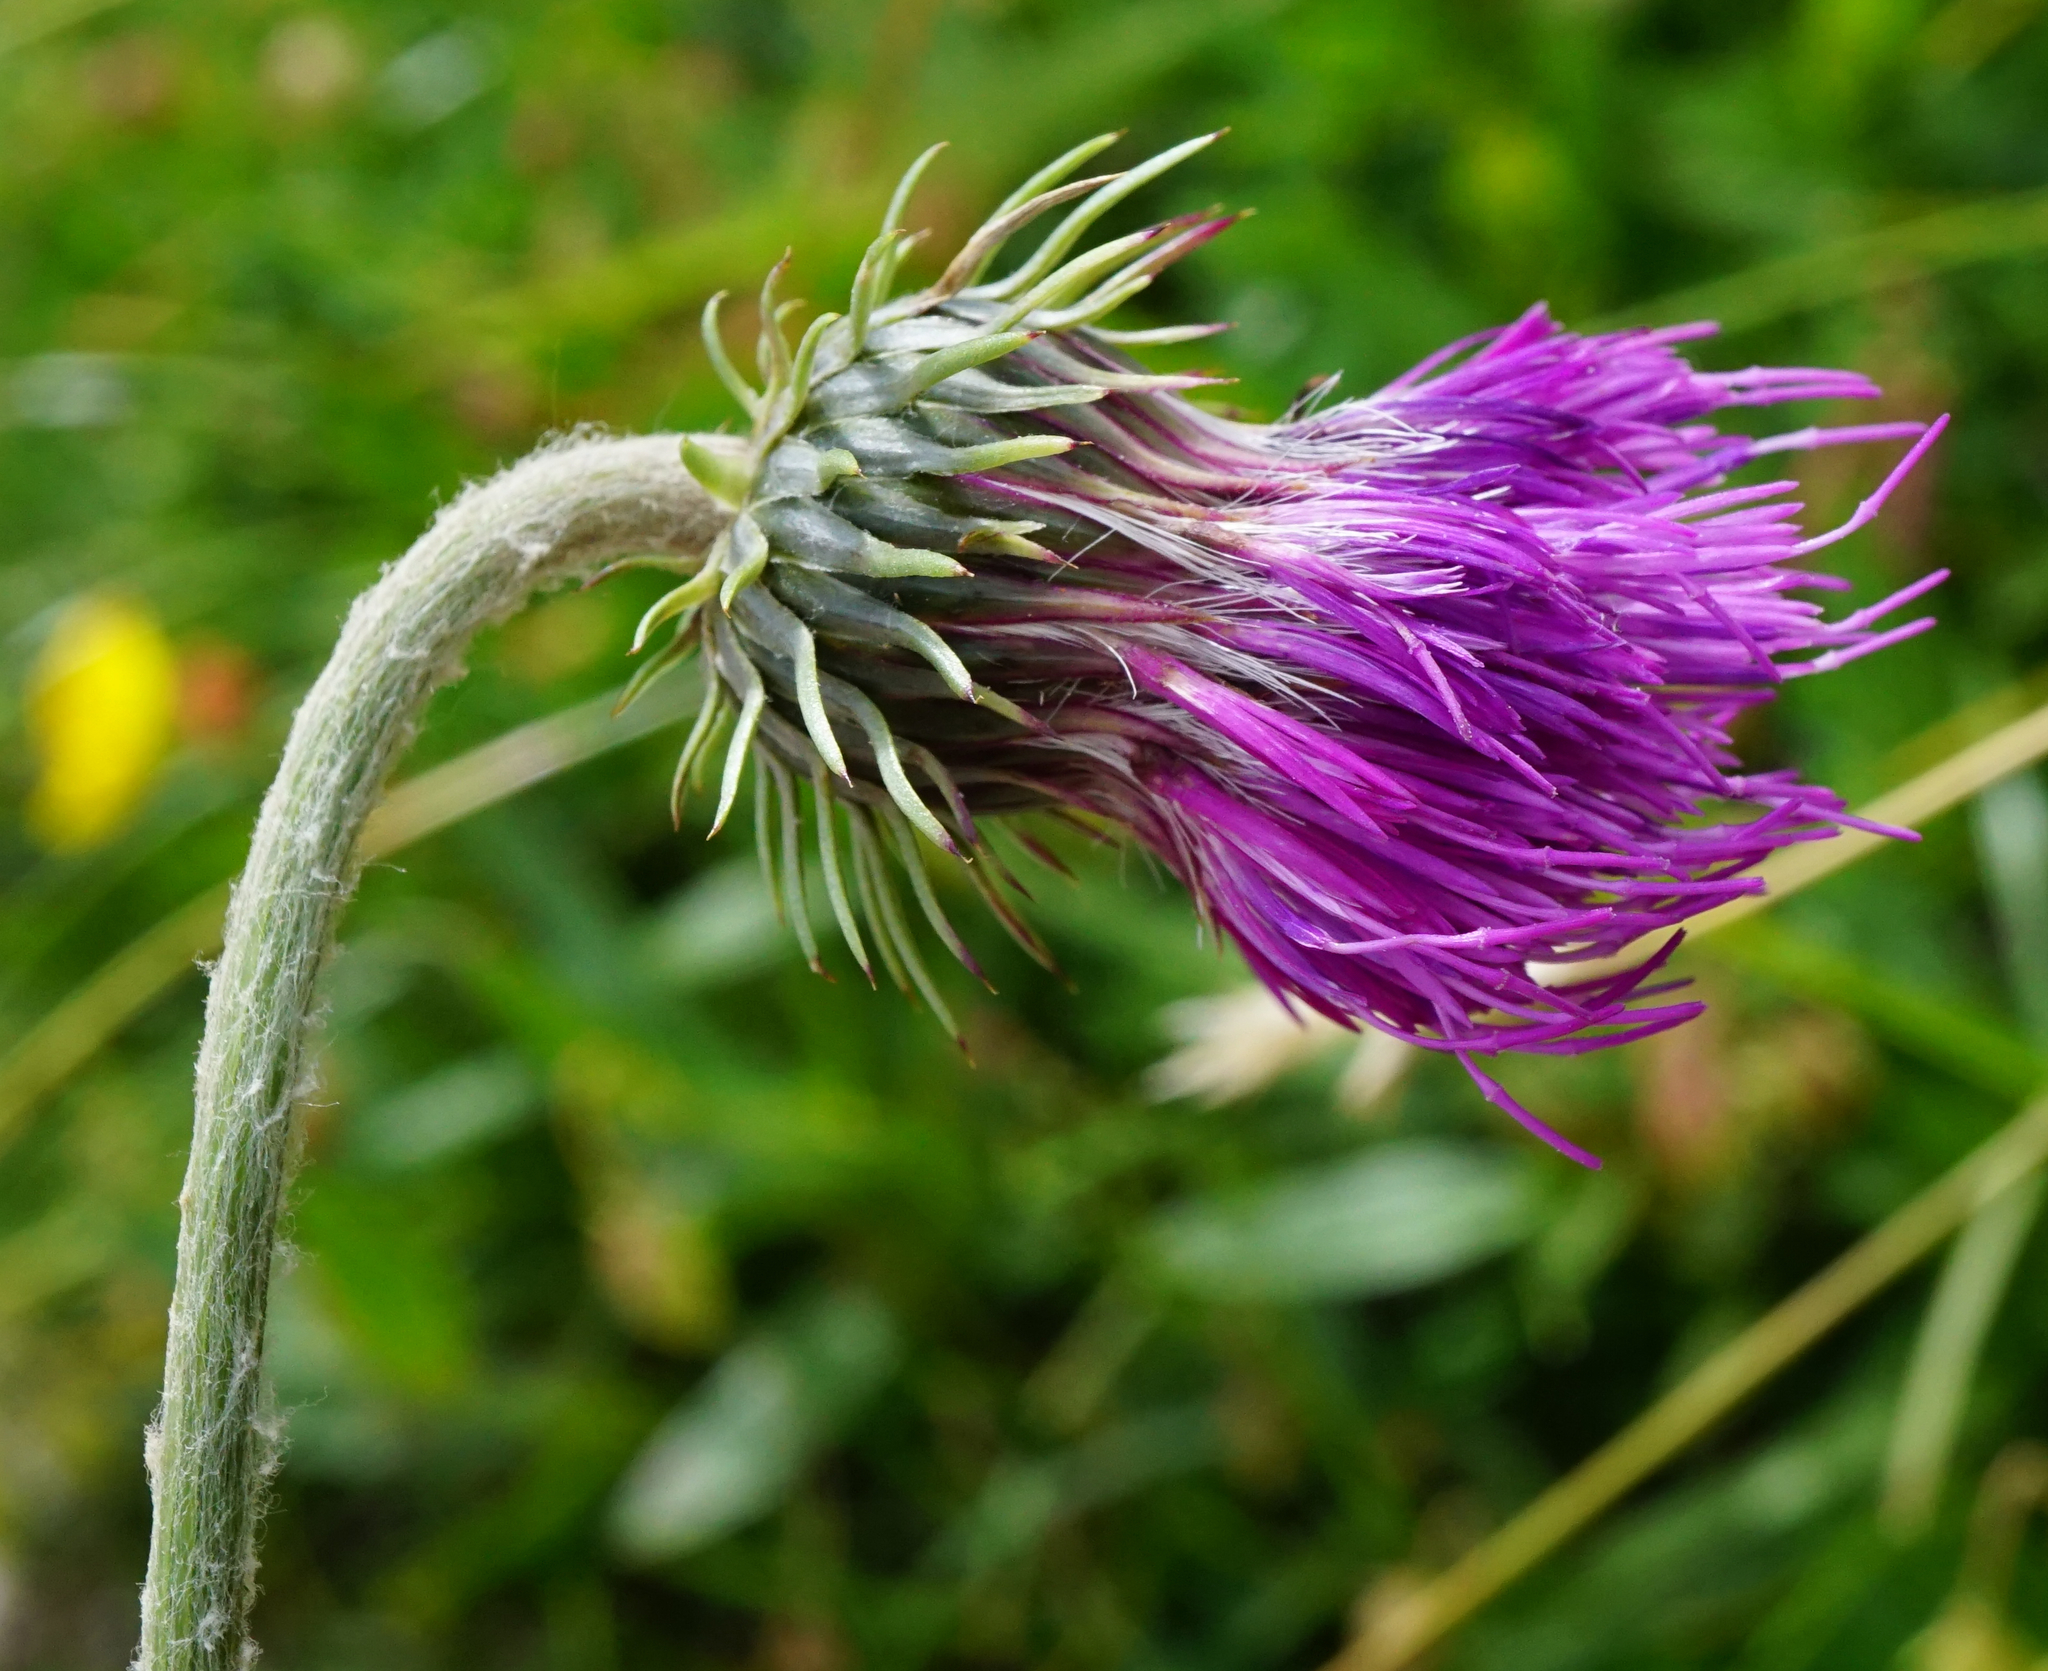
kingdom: Plantae
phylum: Tracheophyta
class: Magnoliopsida
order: Asterales
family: Asteraceae
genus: Carduus
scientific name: Carduus defloratus
